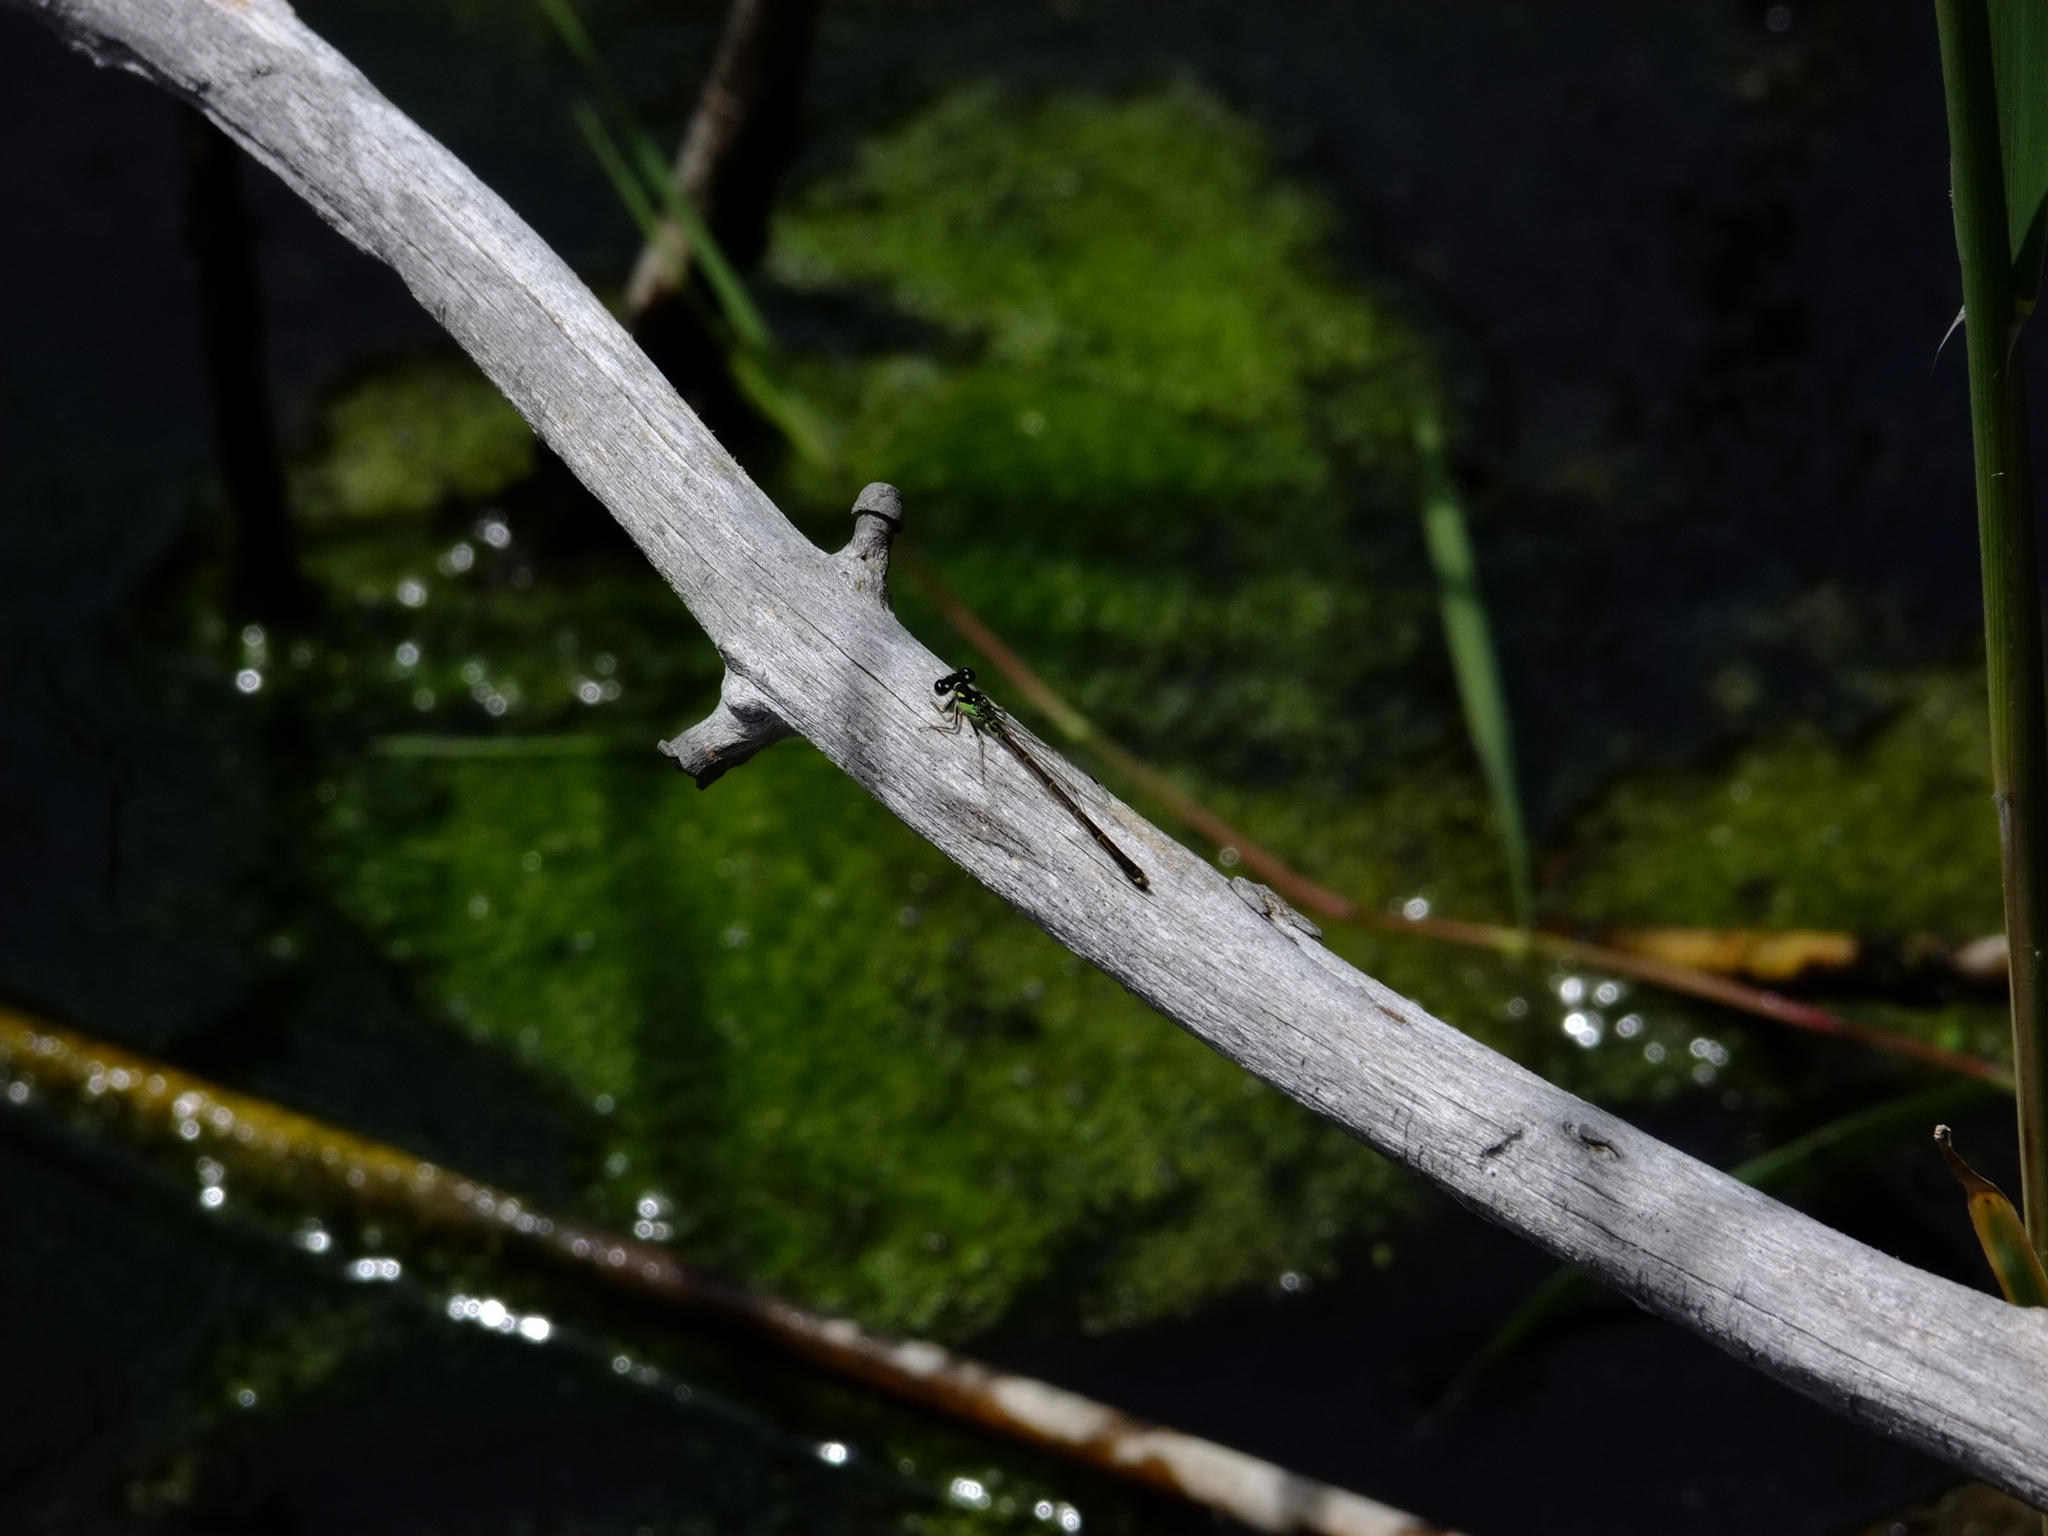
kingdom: Animalia
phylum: Arthropoda
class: Insecta
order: Odonata
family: Coenagrionidae
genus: Ischnura
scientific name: Ischnura posita
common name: Fragile forktail
